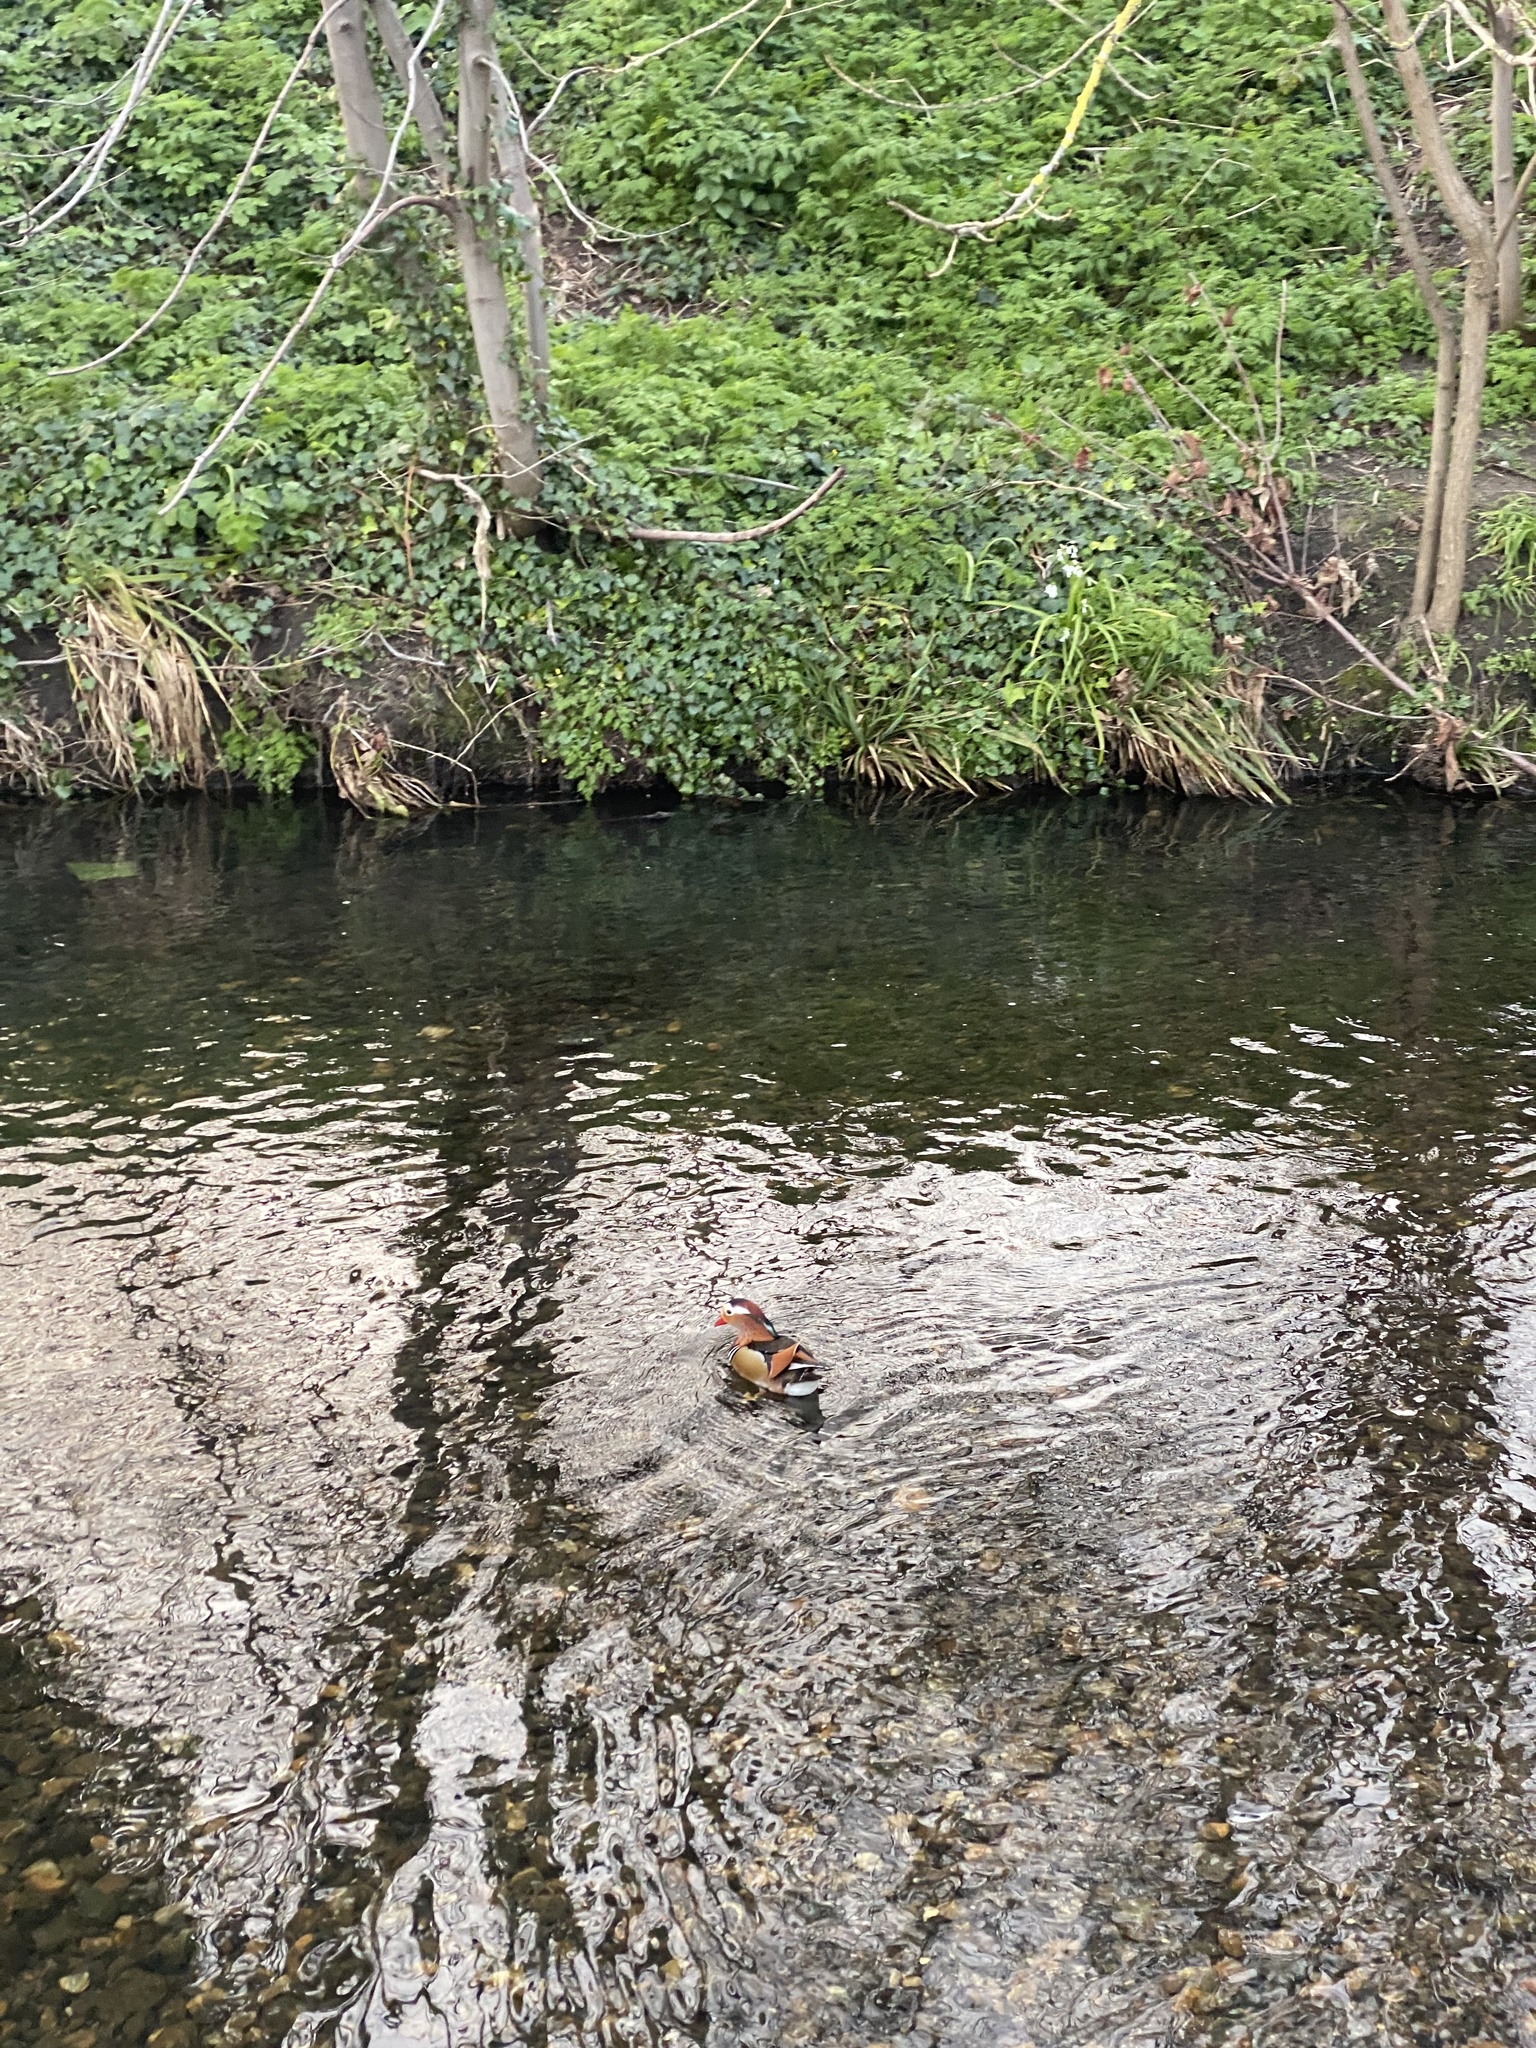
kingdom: Animalia
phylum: Chordata
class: Aves
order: Anseriformes
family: Anatidae
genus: Aix
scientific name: Aix galericulata
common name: Mandarin duck
